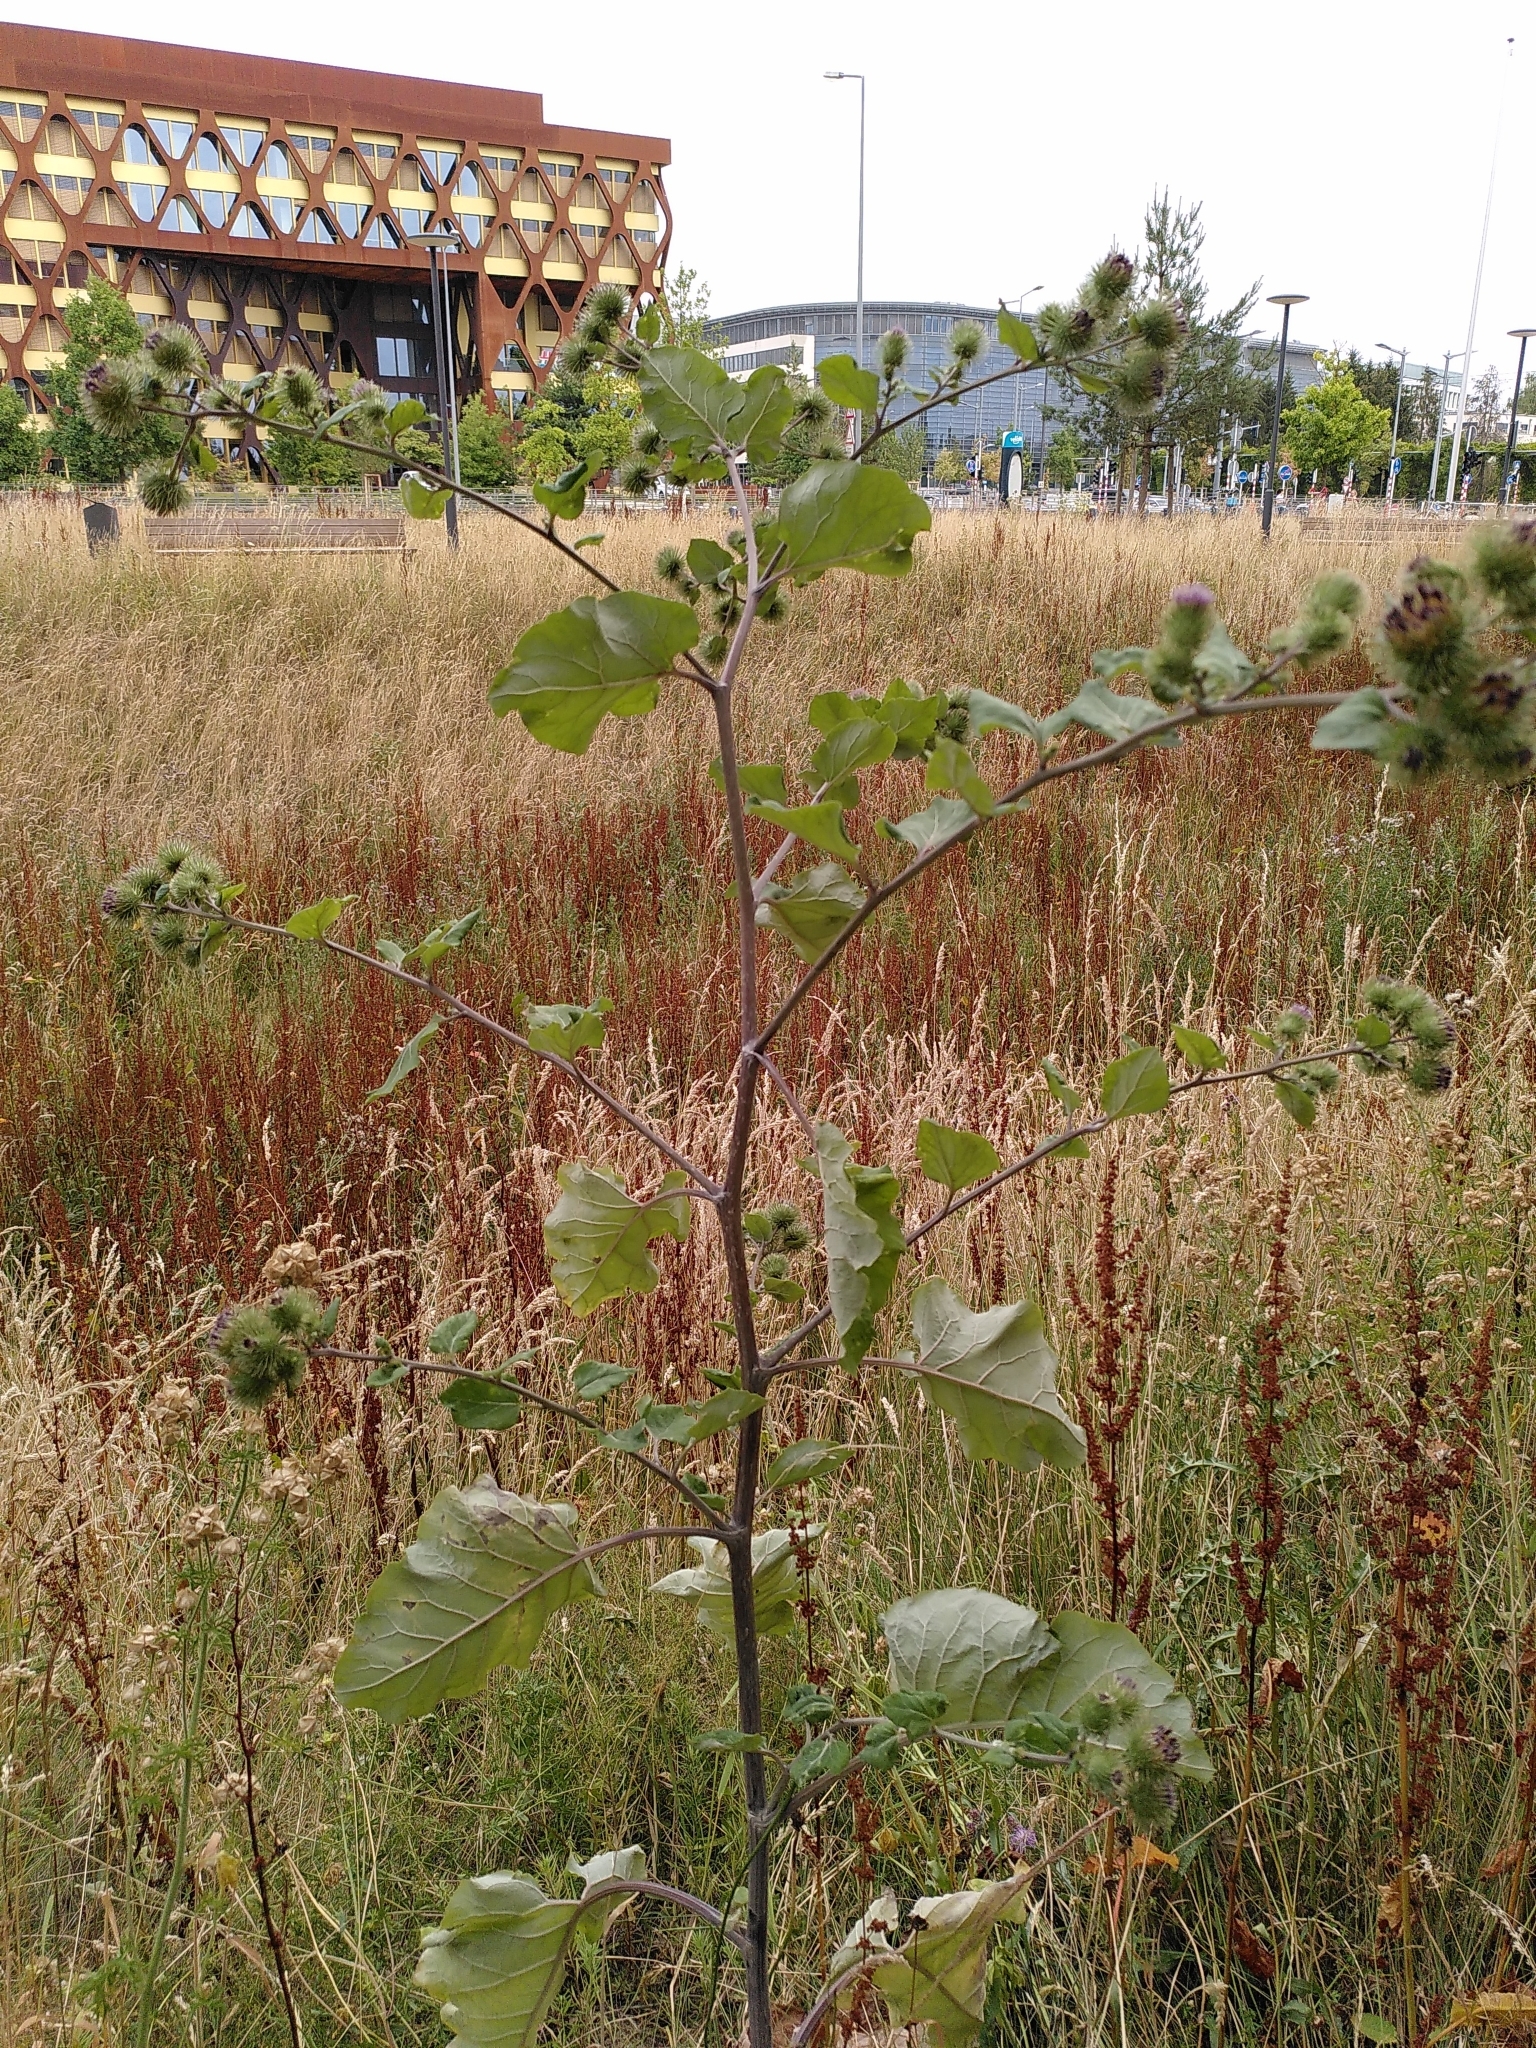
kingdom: Plantae
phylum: Tracheophyta
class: Magnoliopsida
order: Asterales
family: Asteraceae
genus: Arctium
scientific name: Arctium lappa
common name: Greater burdock
